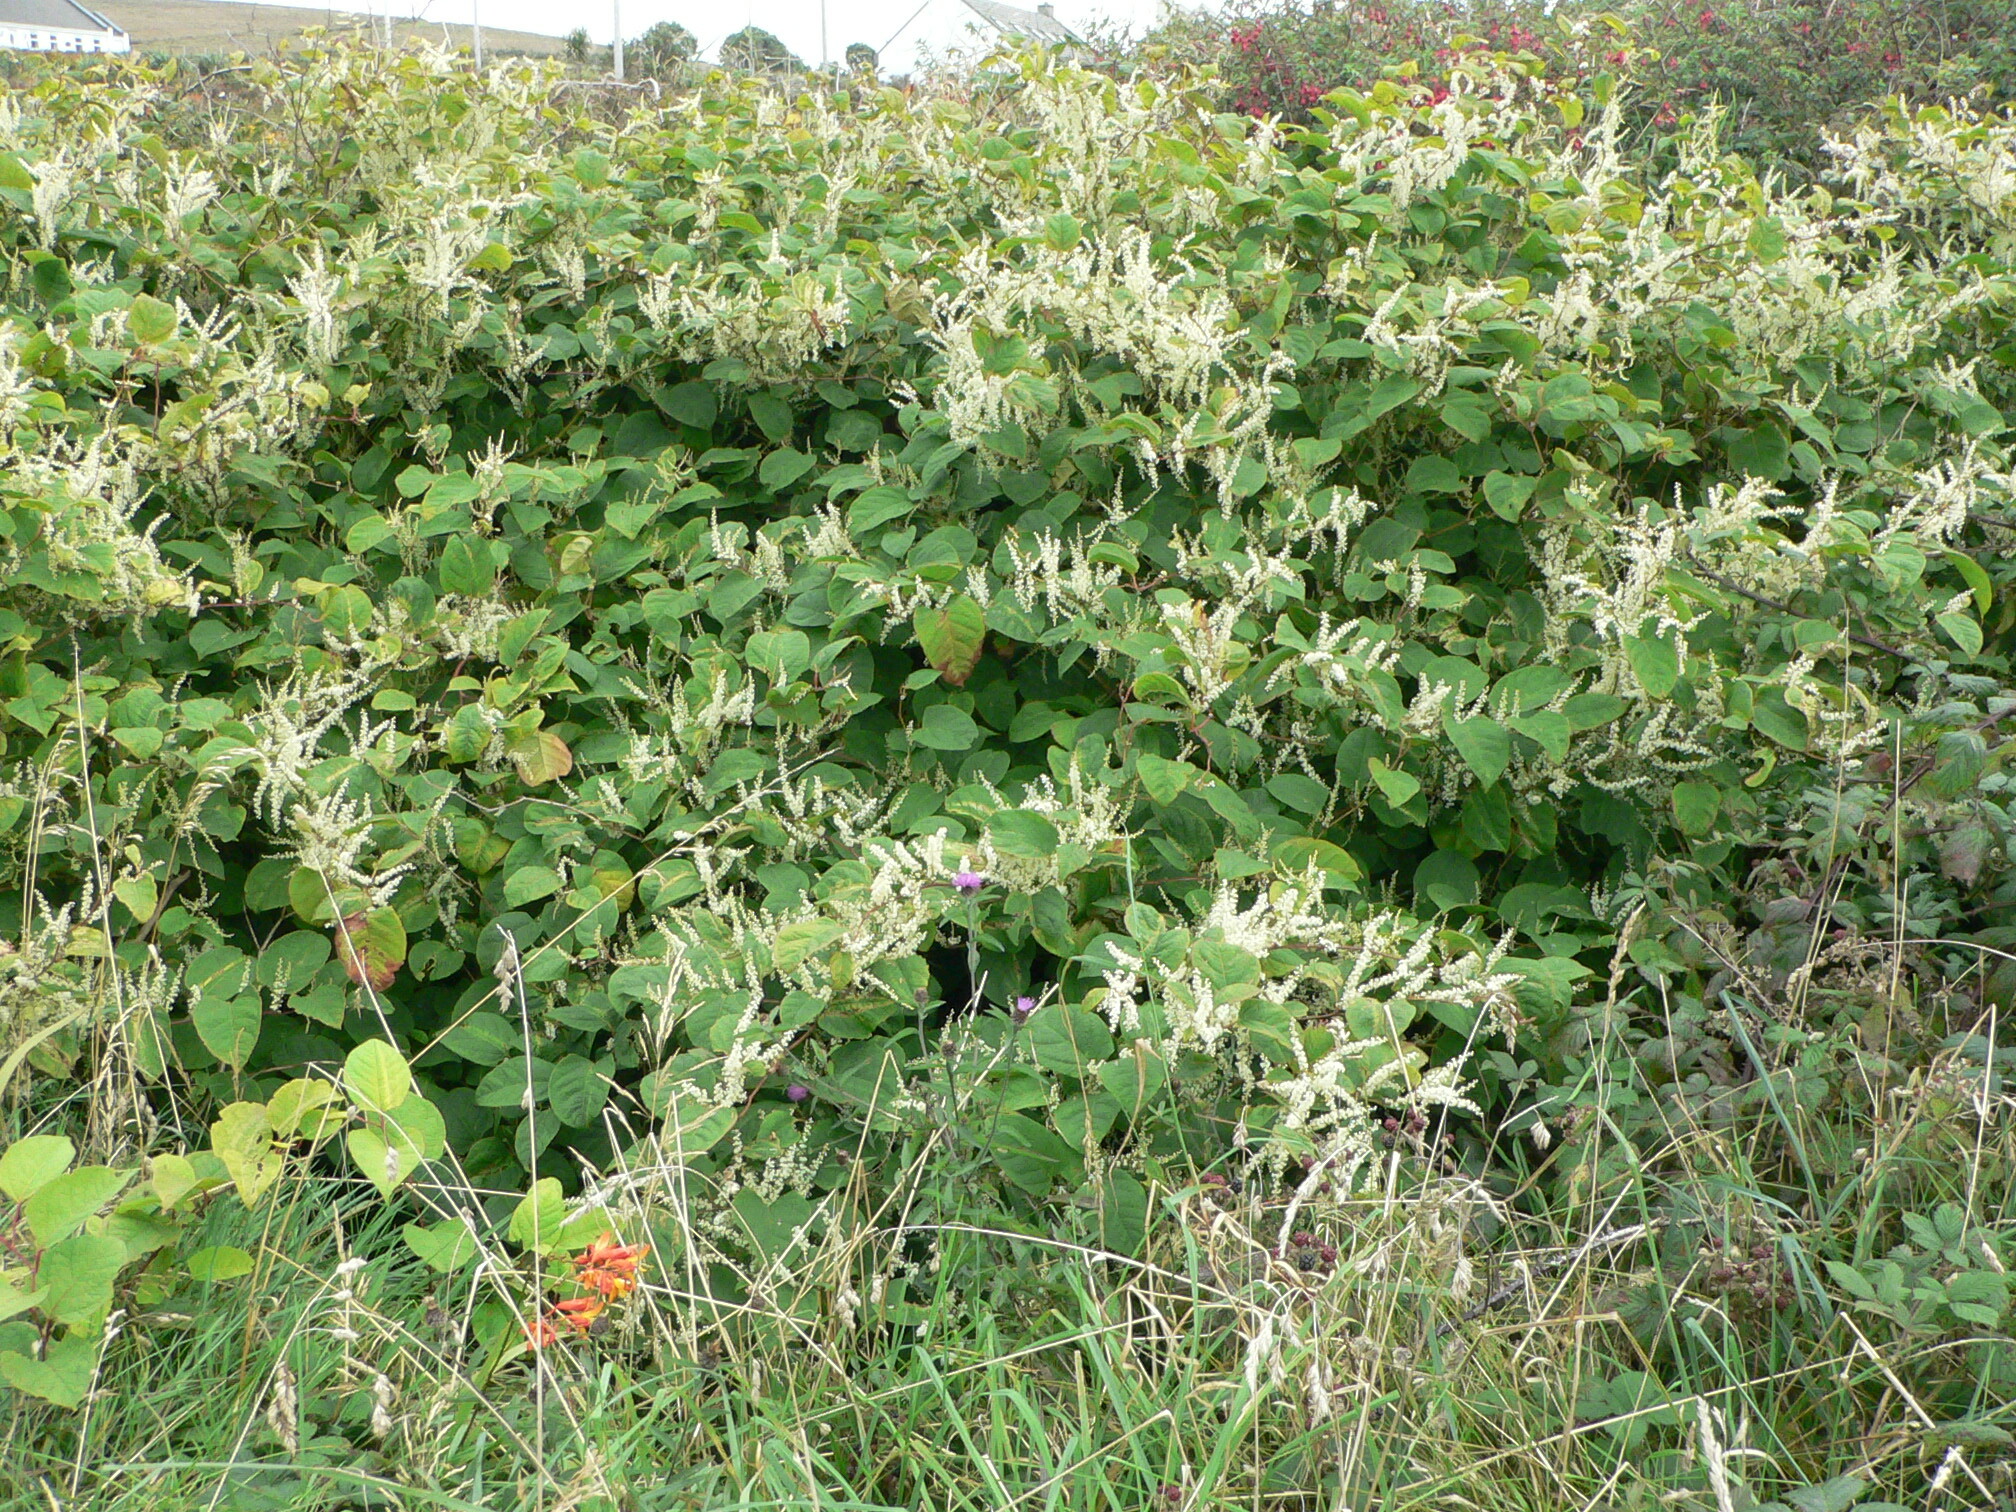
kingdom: Plantae
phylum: Tracheophyta
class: Magnoliopsida
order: Caryophyllales
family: Polygonaceae
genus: Reynoutria
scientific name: Reynoutria japonica
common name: Japanese knotweed
